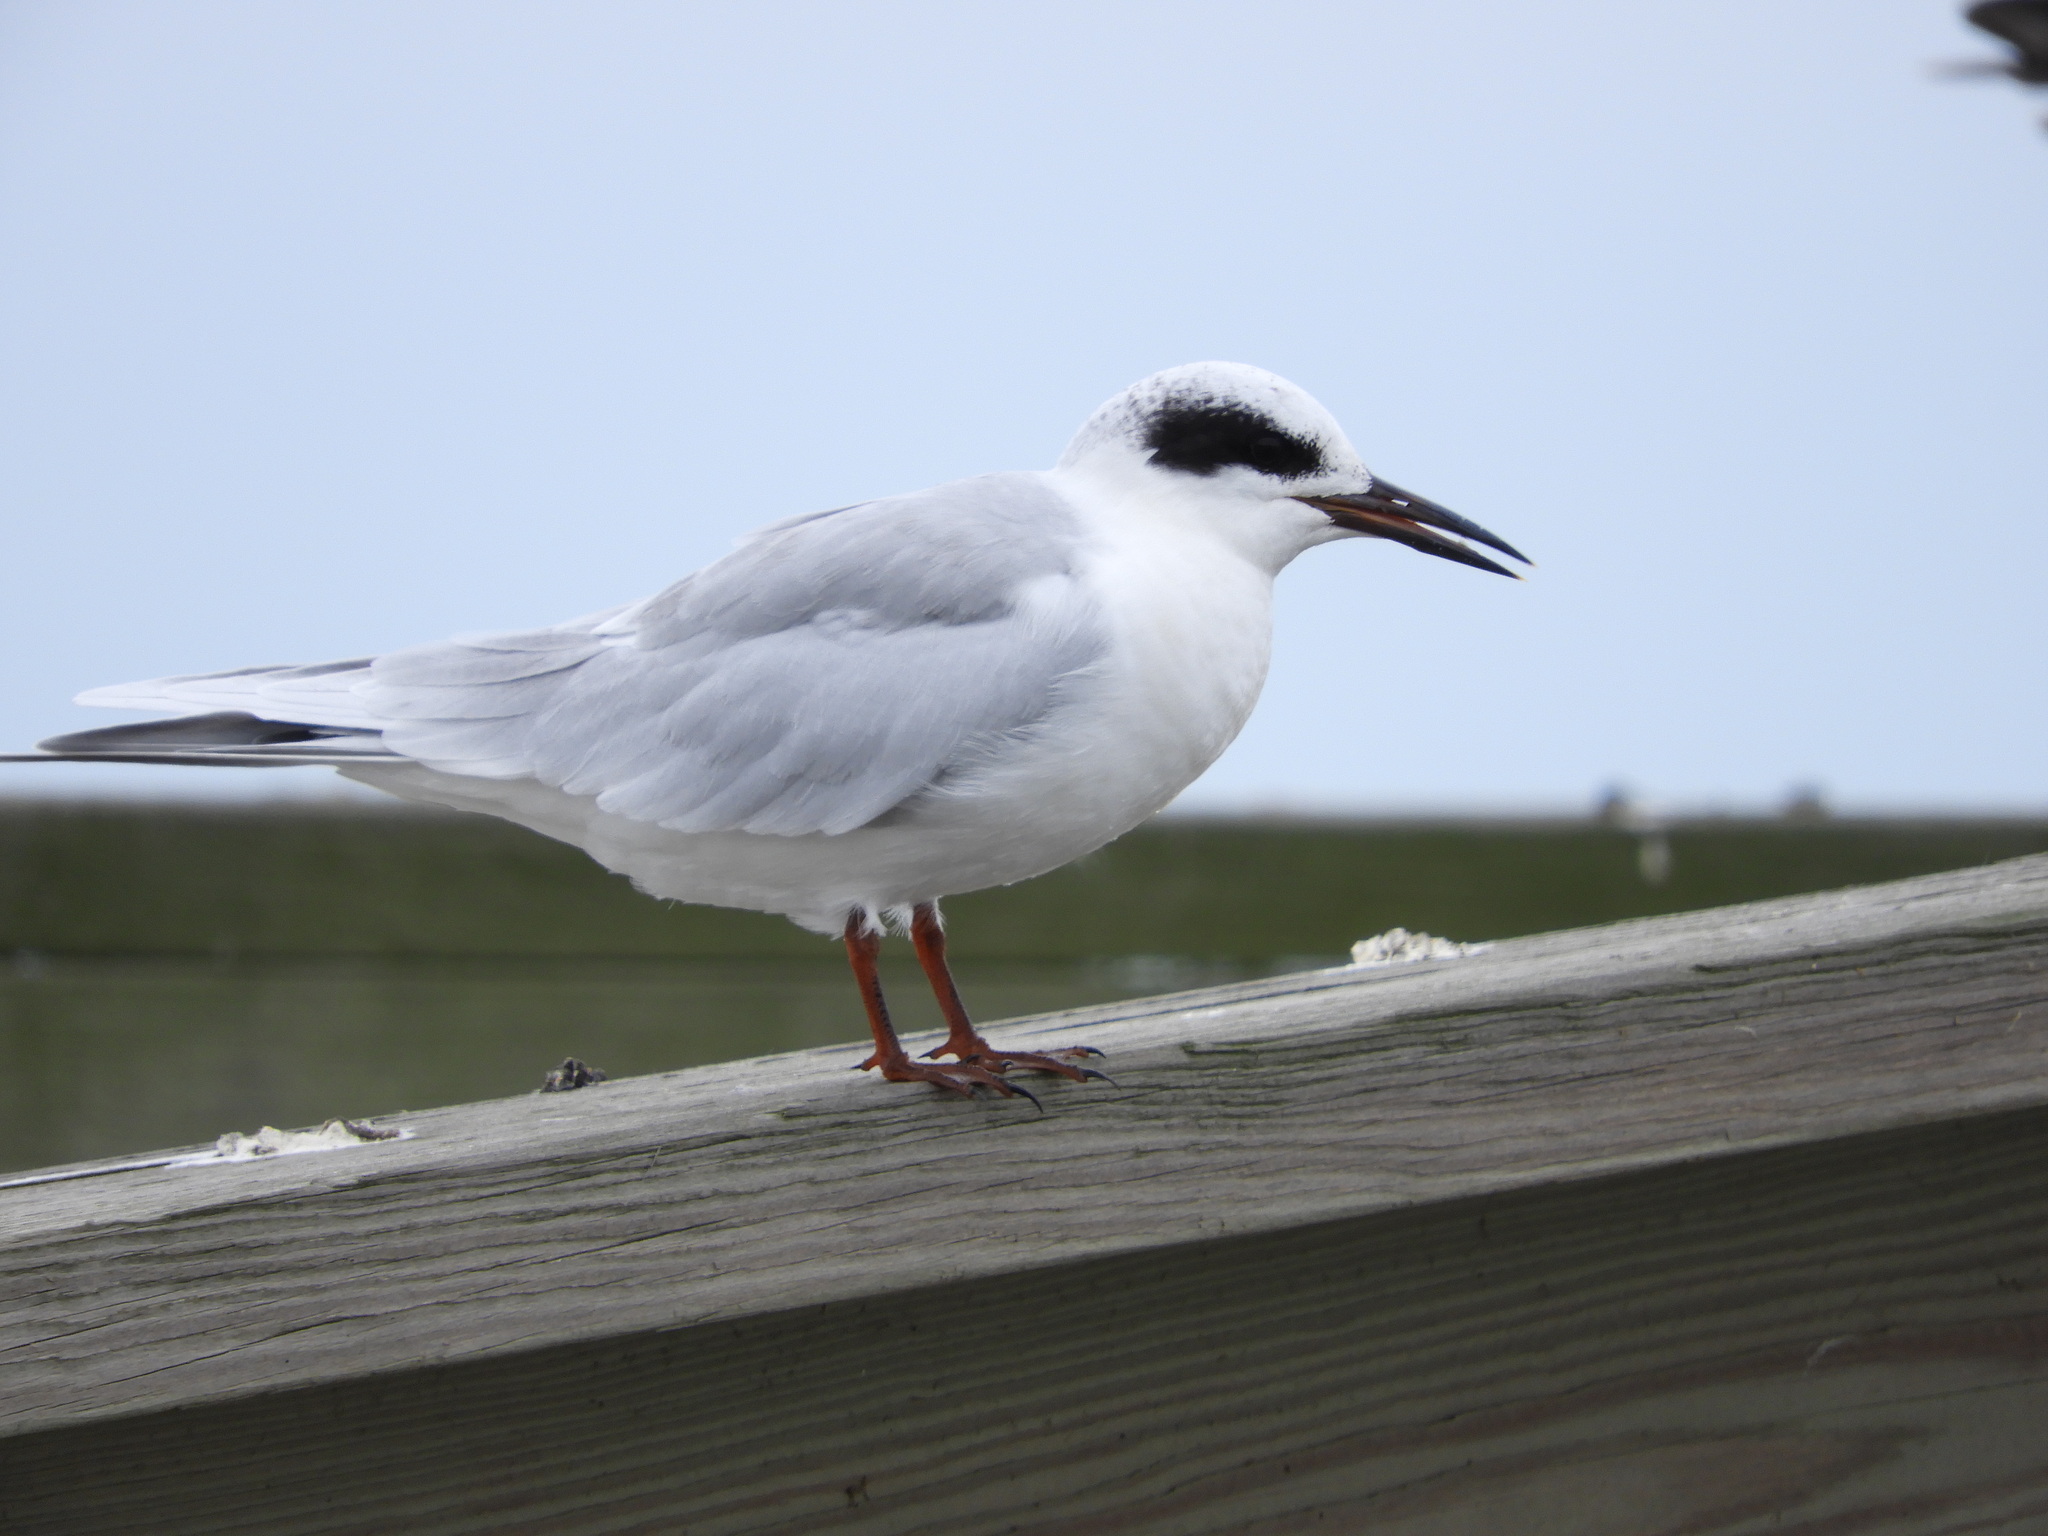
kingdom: Animalia
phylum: Chordata
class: Aves
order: Charadriiformes
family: Laridae
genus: Sterna
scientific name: Sterna forsteri
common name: Forster's tern
